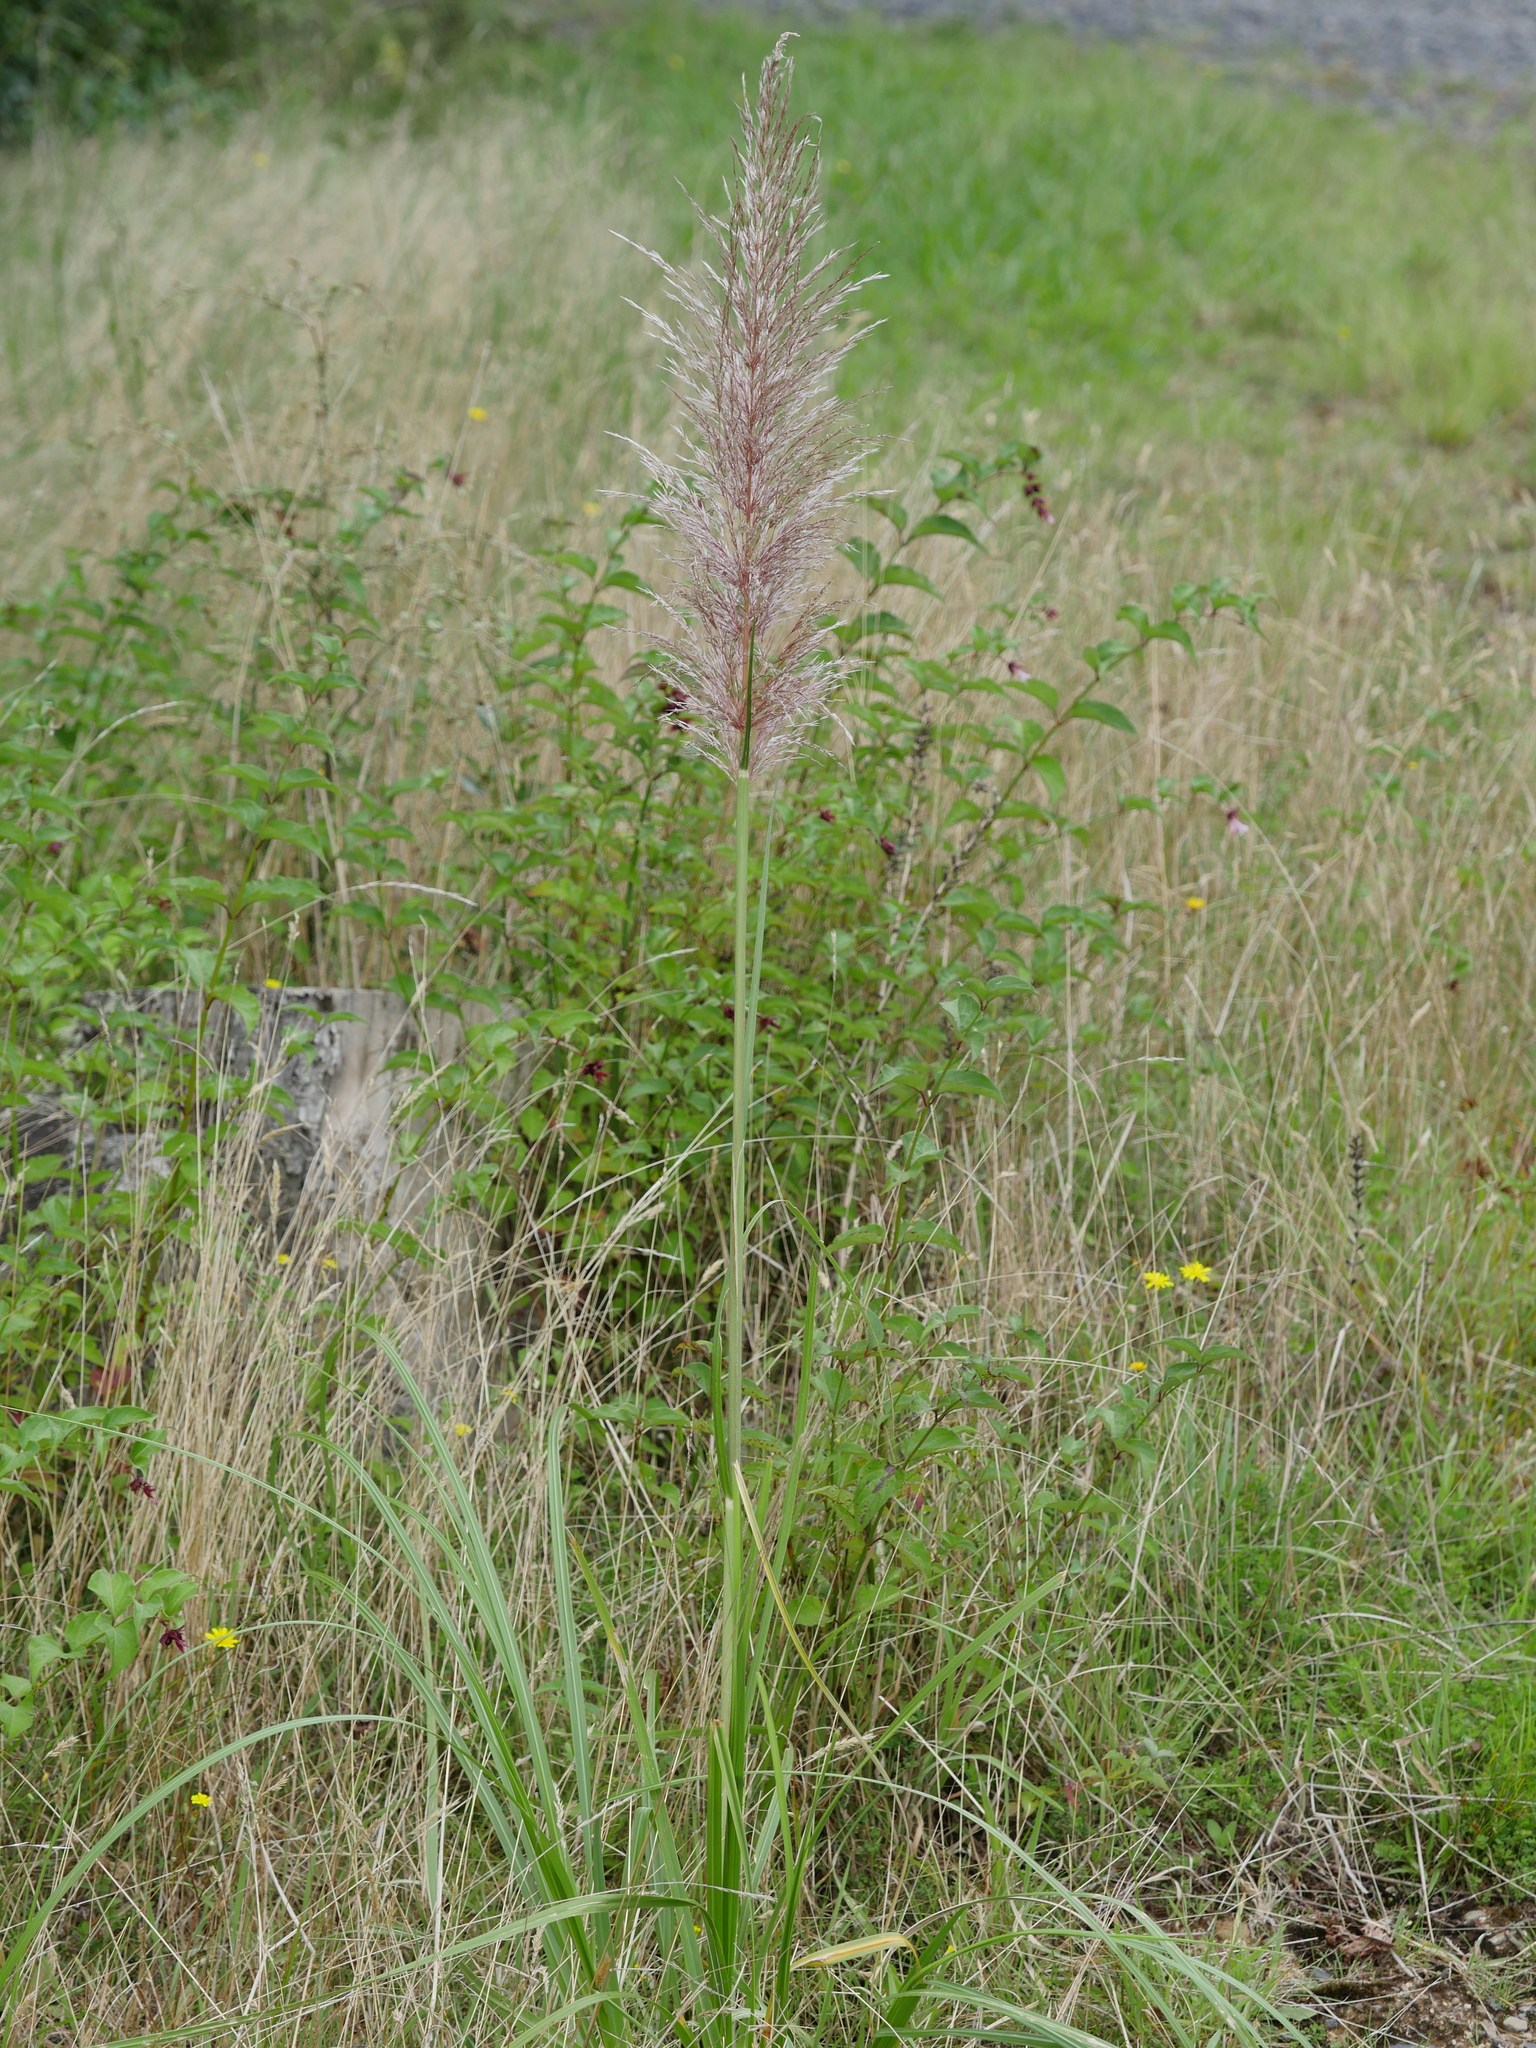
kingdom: Plantae
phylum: Tracheophyta
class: Liliopsida
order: Poales
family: Poaceae
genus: Cortaderia
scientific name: Cortaderia jubata
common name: Purple pampas grass
